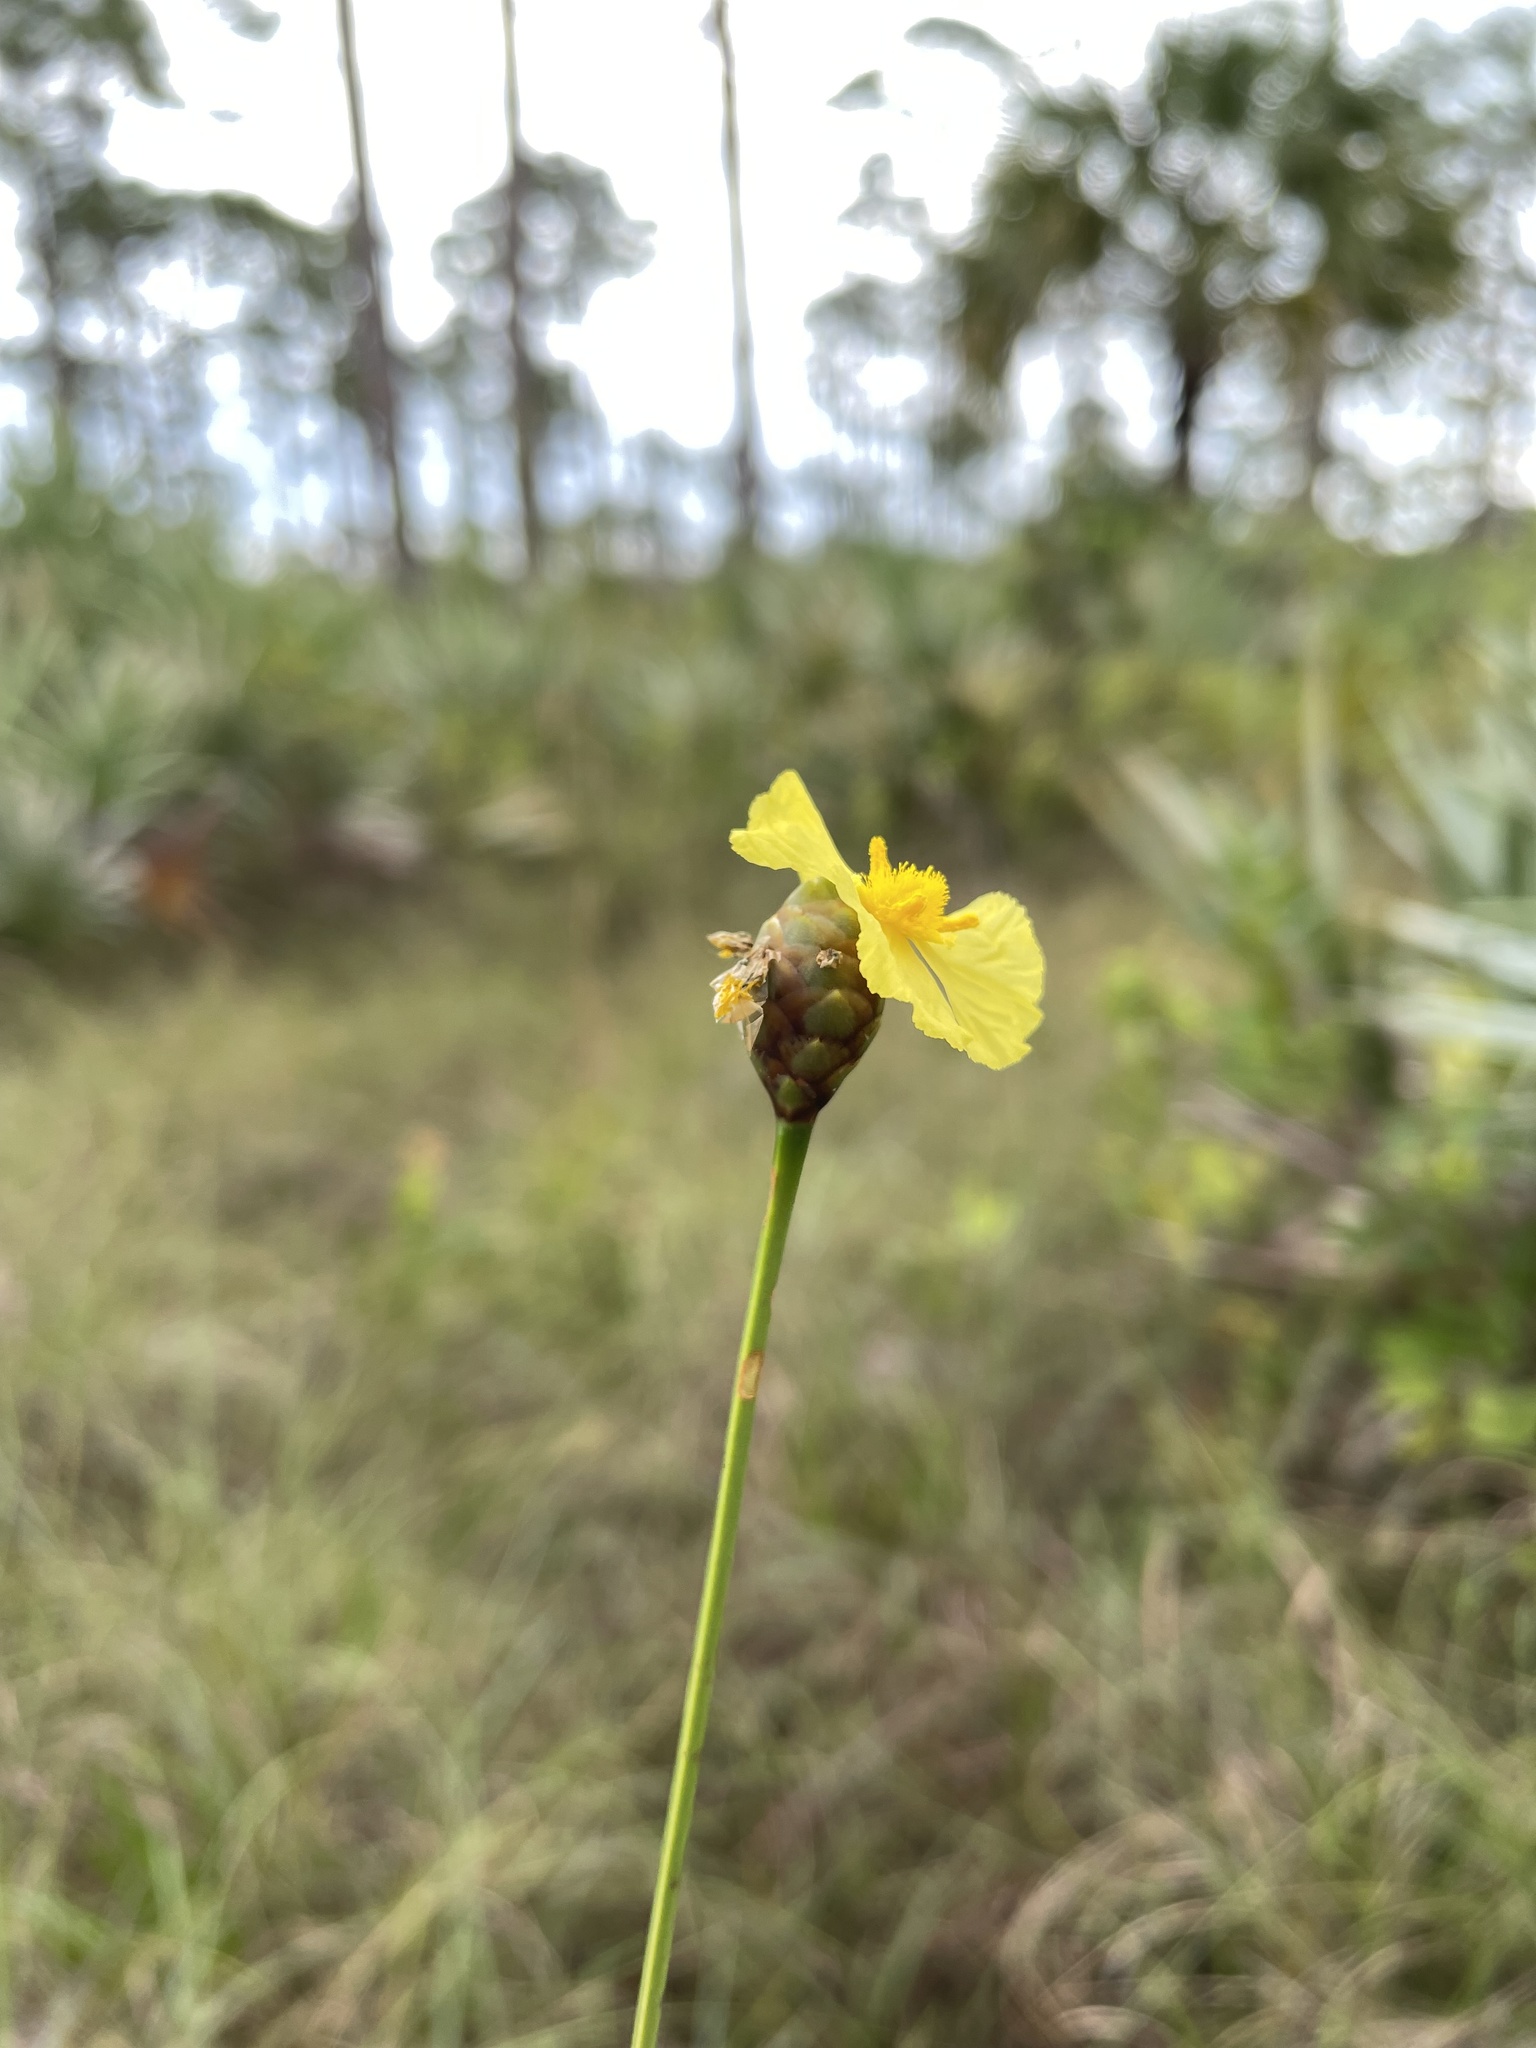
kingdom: Plantae
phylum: Tracheophyta
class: Liliopsida
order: Poales
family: Xyridaceae
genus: Xyris
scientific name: Xyris ambigua
